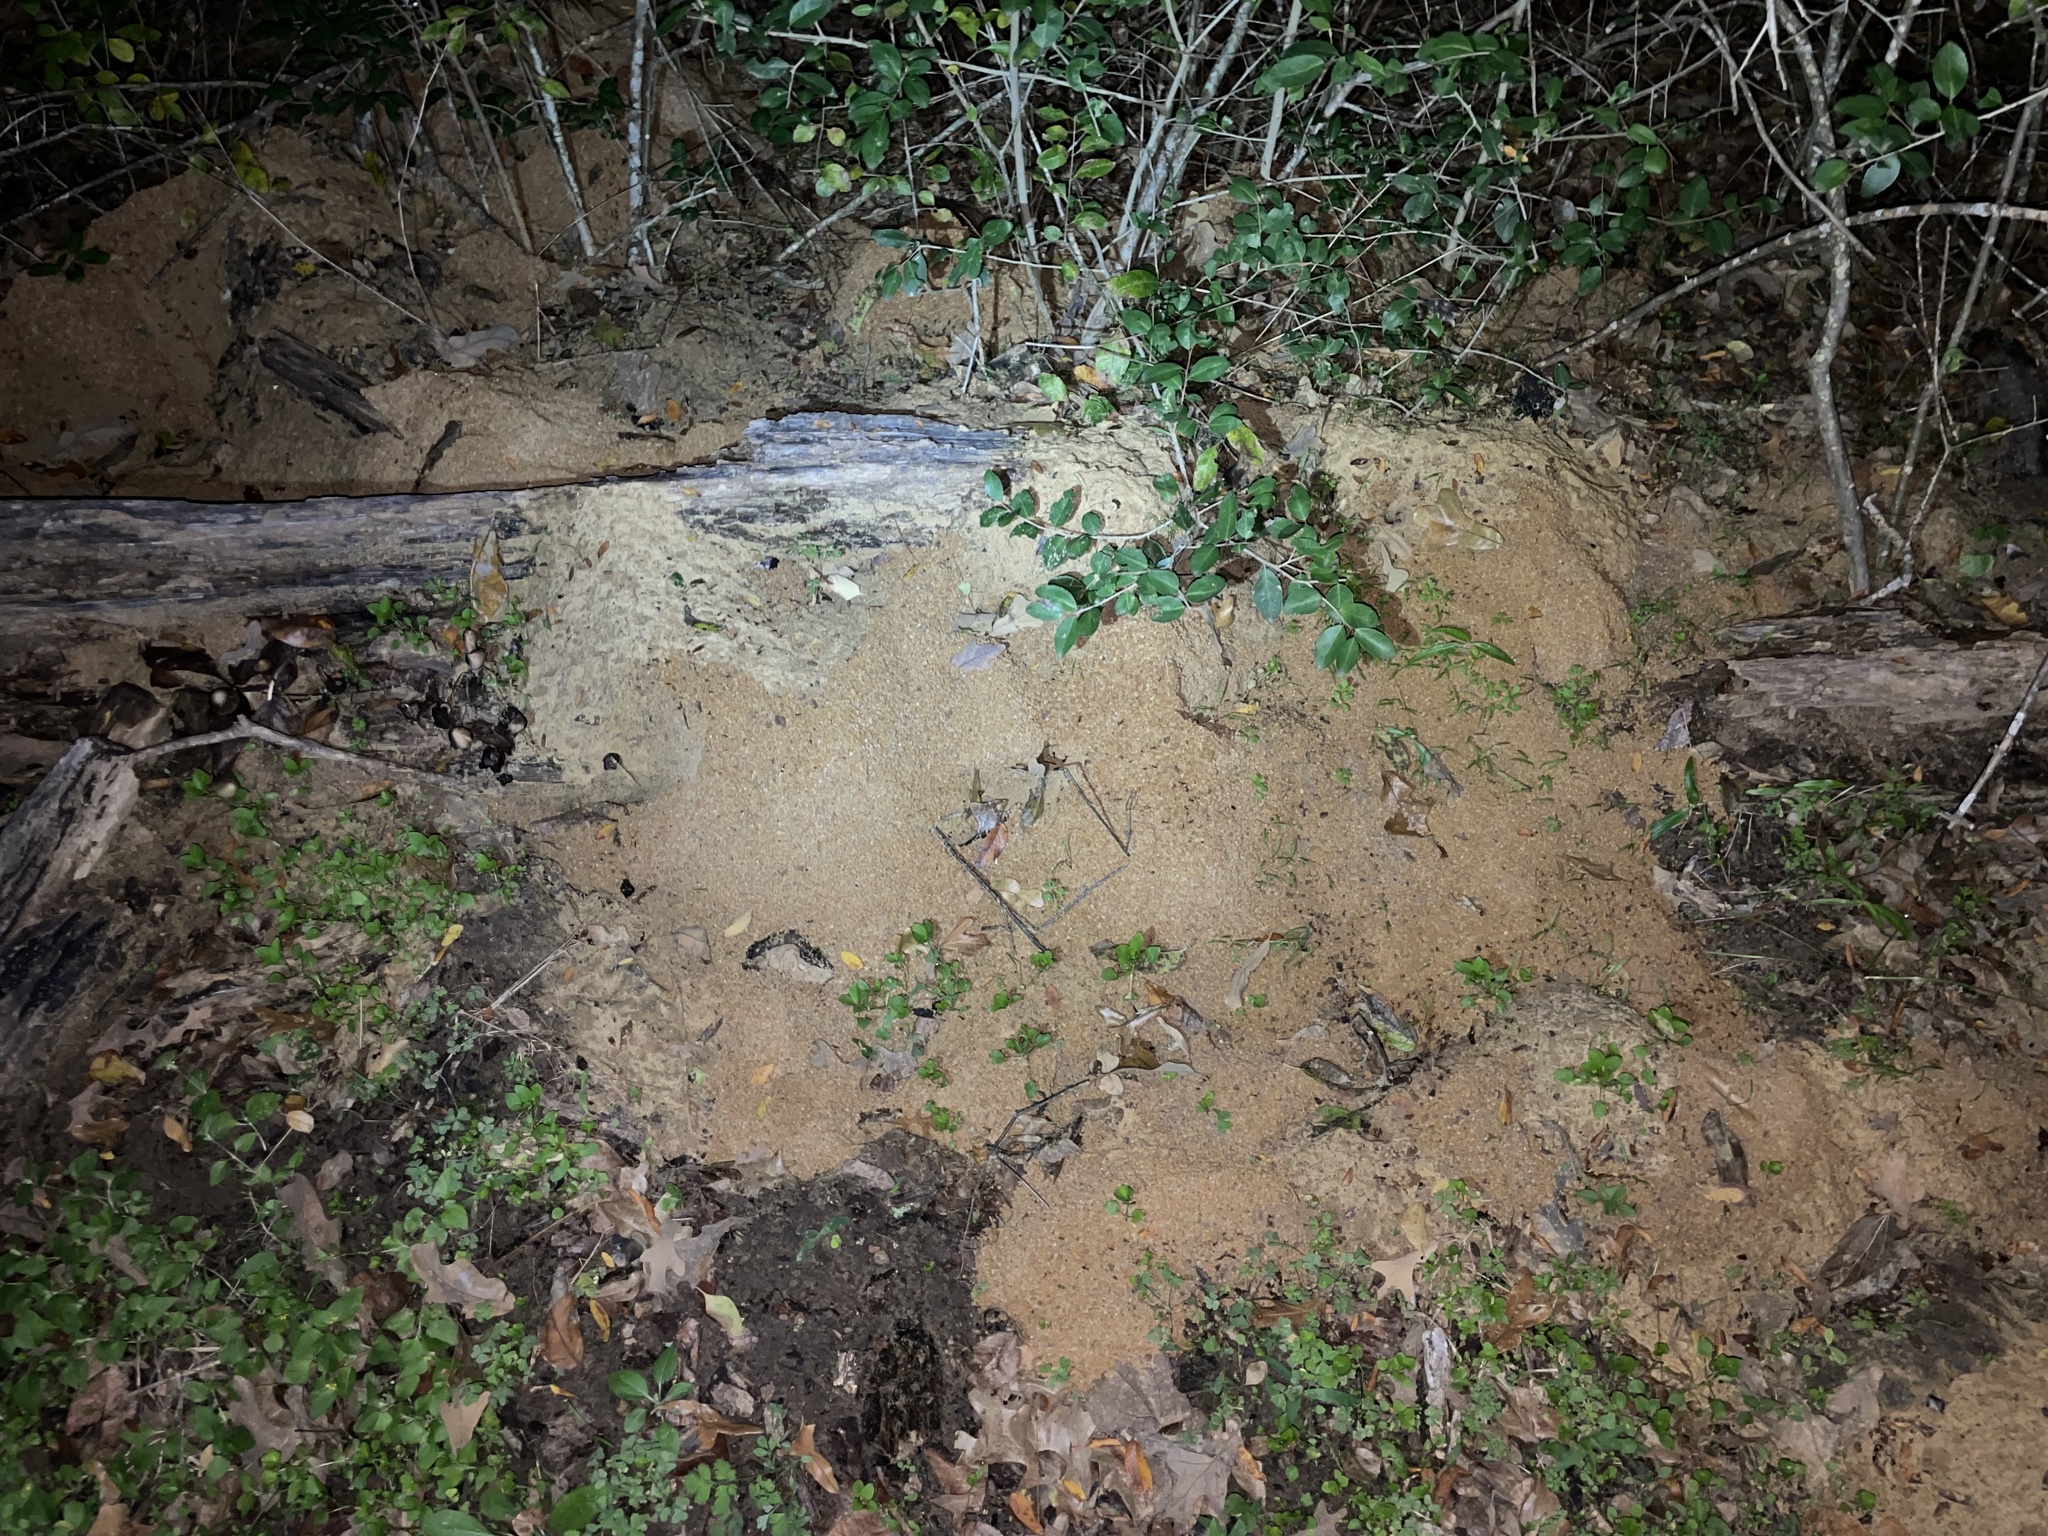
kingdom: Animalia
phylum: Arthropoda
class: Insecta
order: Hymenoptera
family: Formicidae
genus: Atta
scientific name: Atta texana
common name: Texas leafcutting ant
